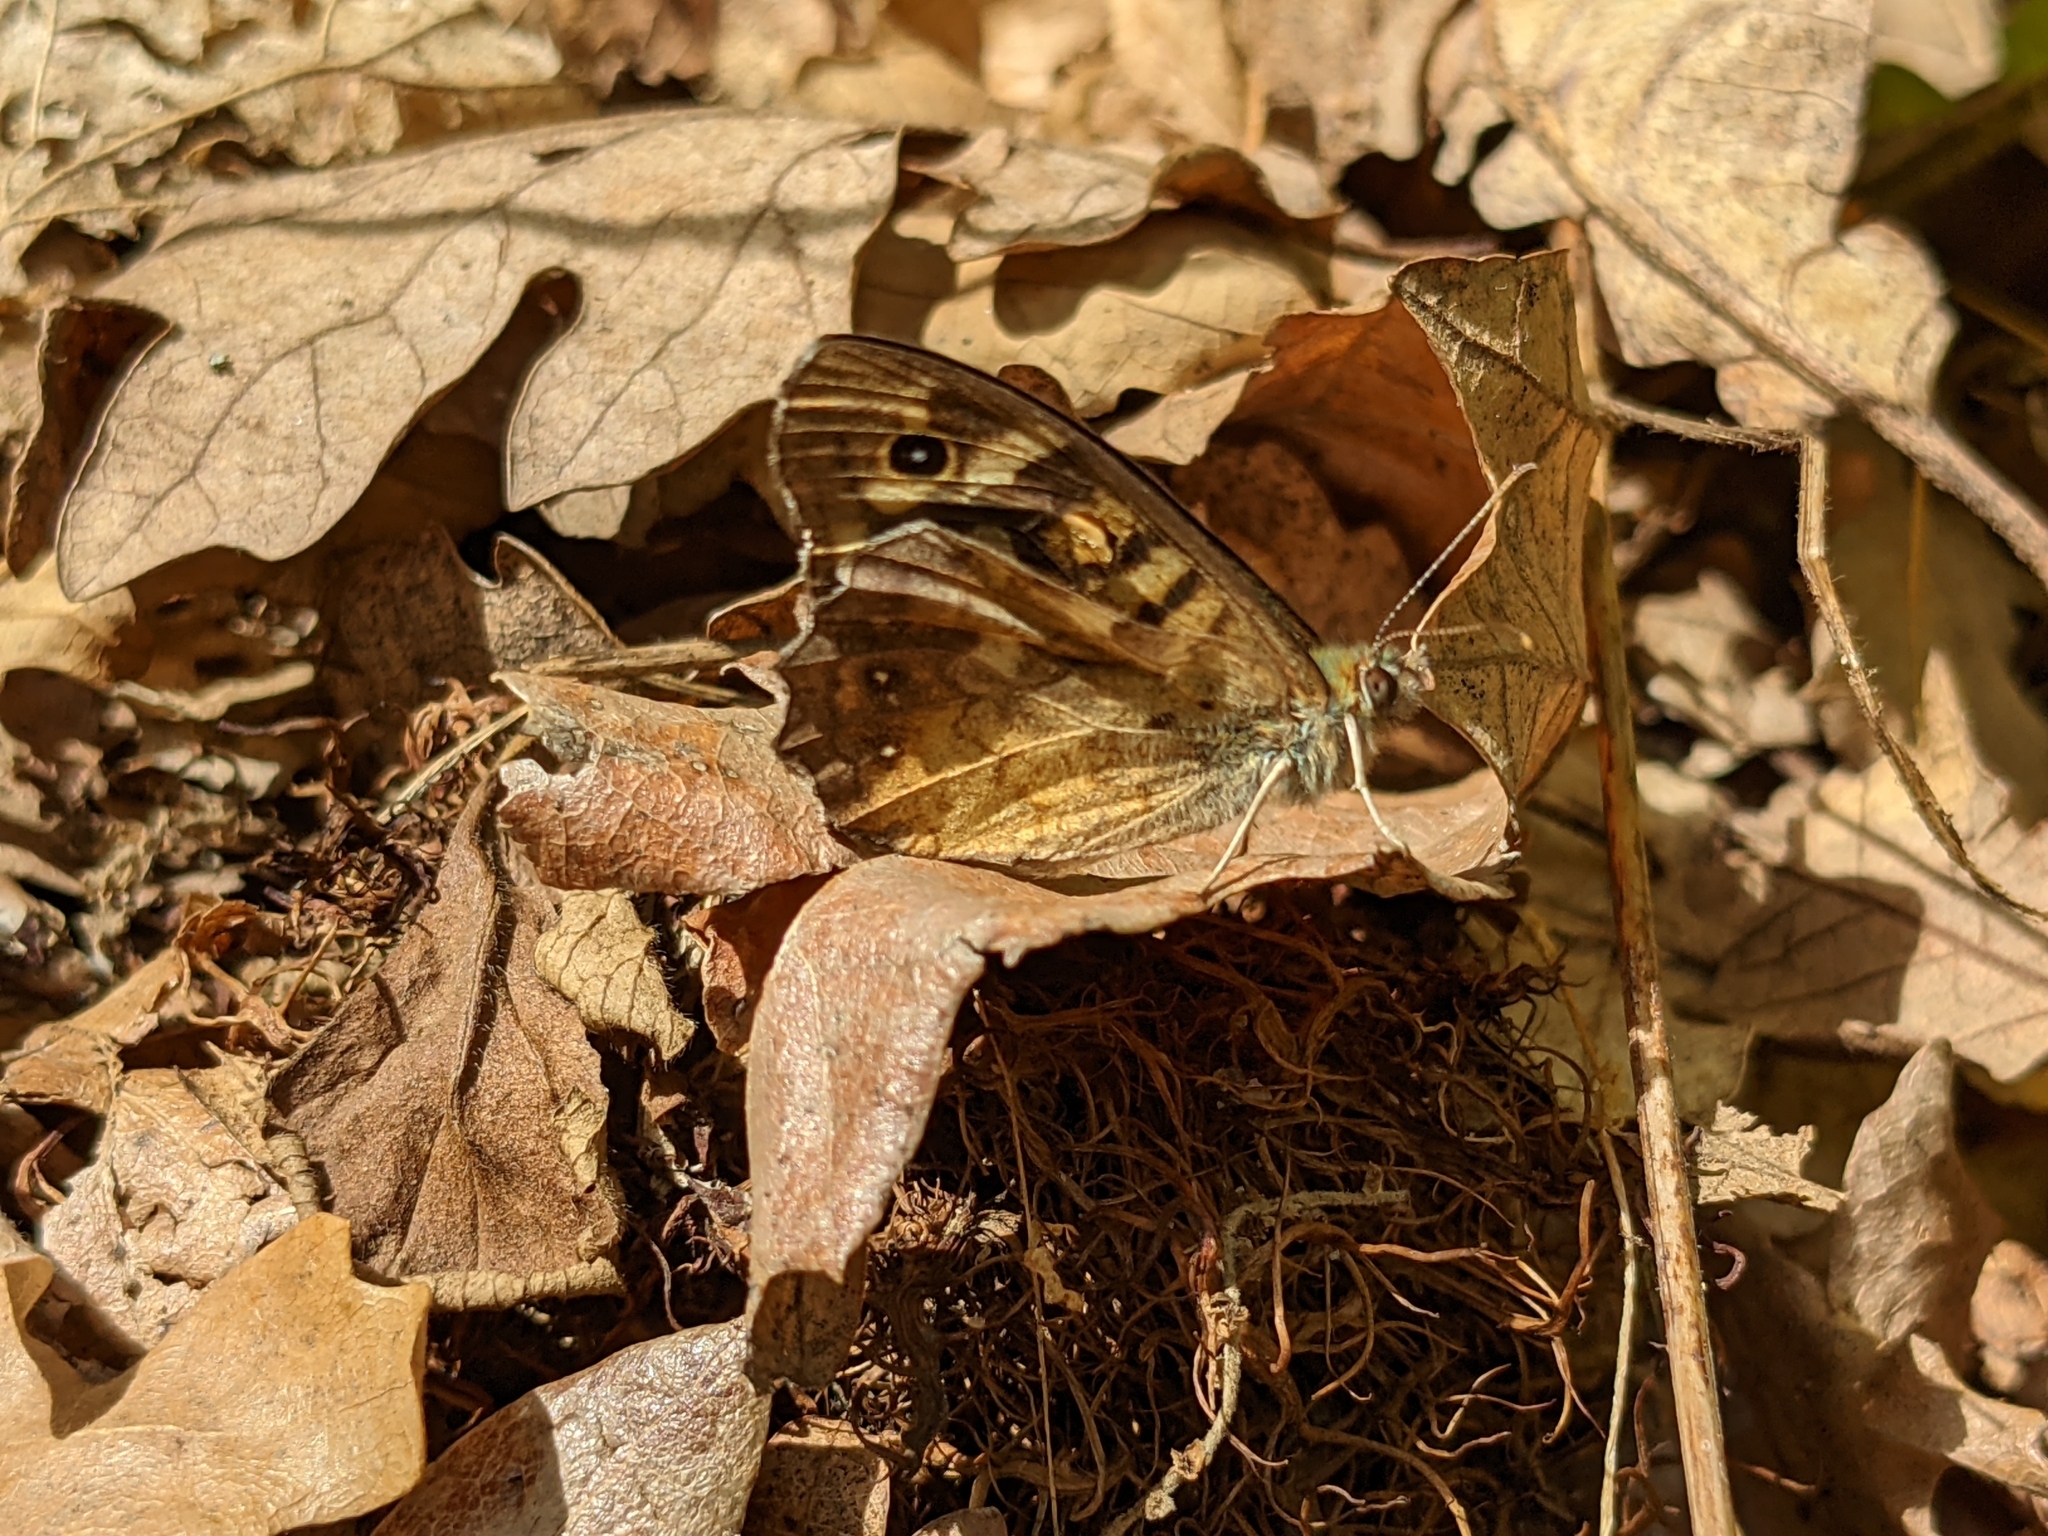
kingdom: Animalia
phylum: Arthropoda
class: Insecta
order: Lepidoptera
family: Nymphalidae
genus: Pararge
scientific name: Pararge aegeria
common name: Speckled wood
